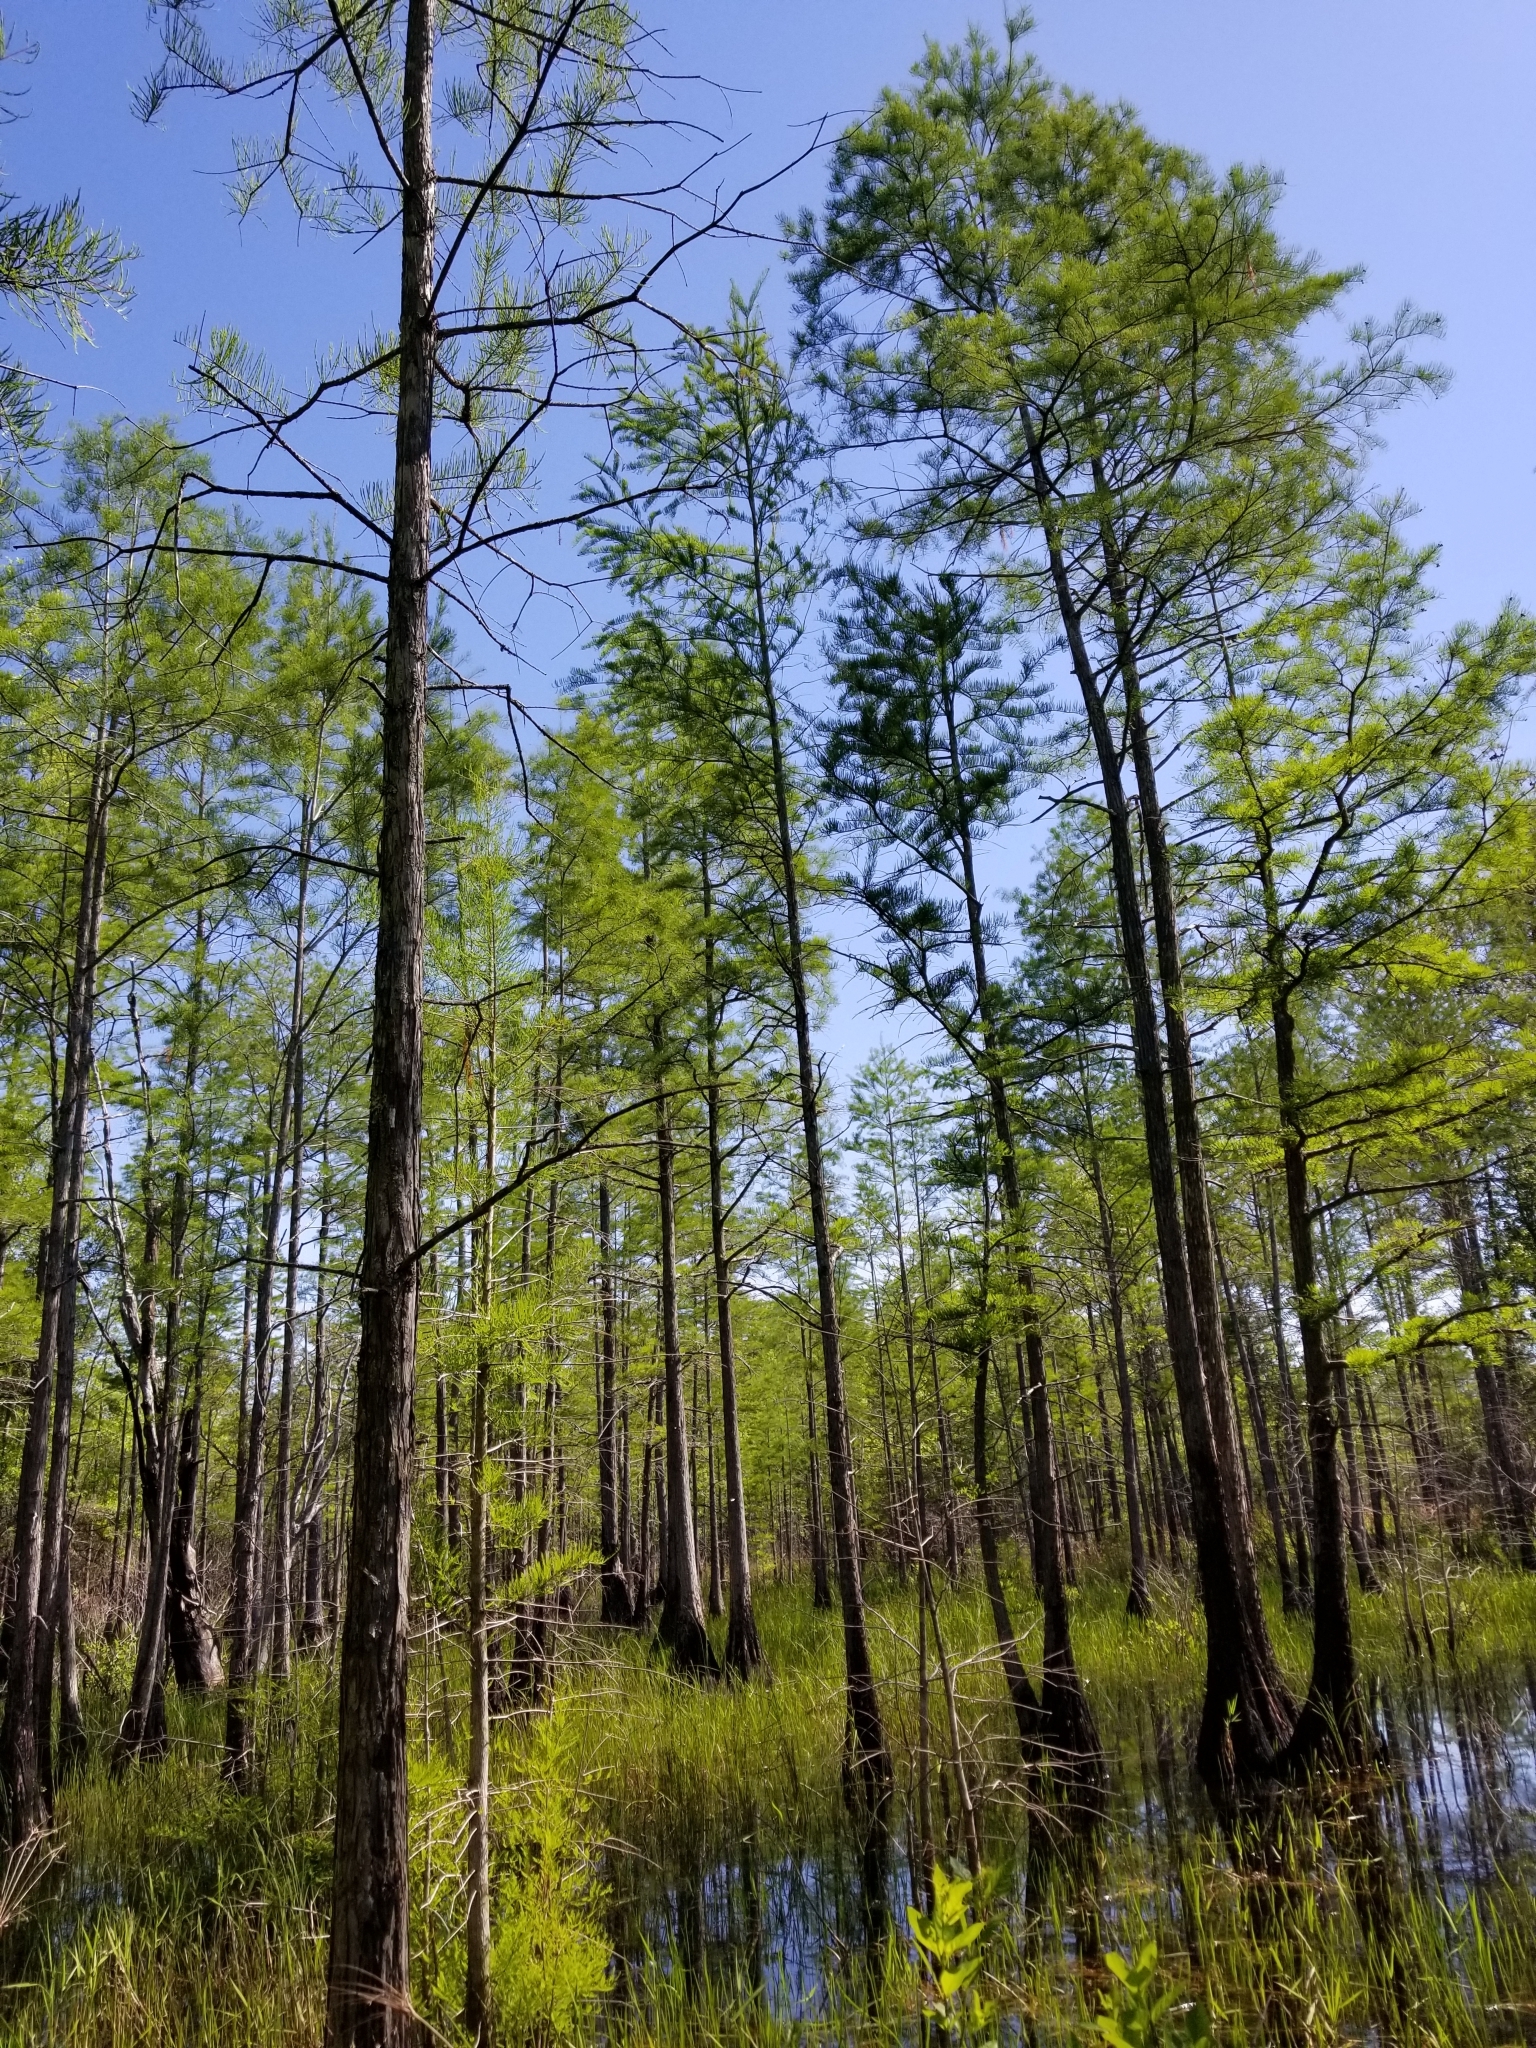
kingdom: Plantae
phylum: Tracheophyta
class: Pinopsida
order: Pinales
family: Cupressaceae
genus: Taxodium
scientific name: Taxodium distichum
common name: Bald cypress
